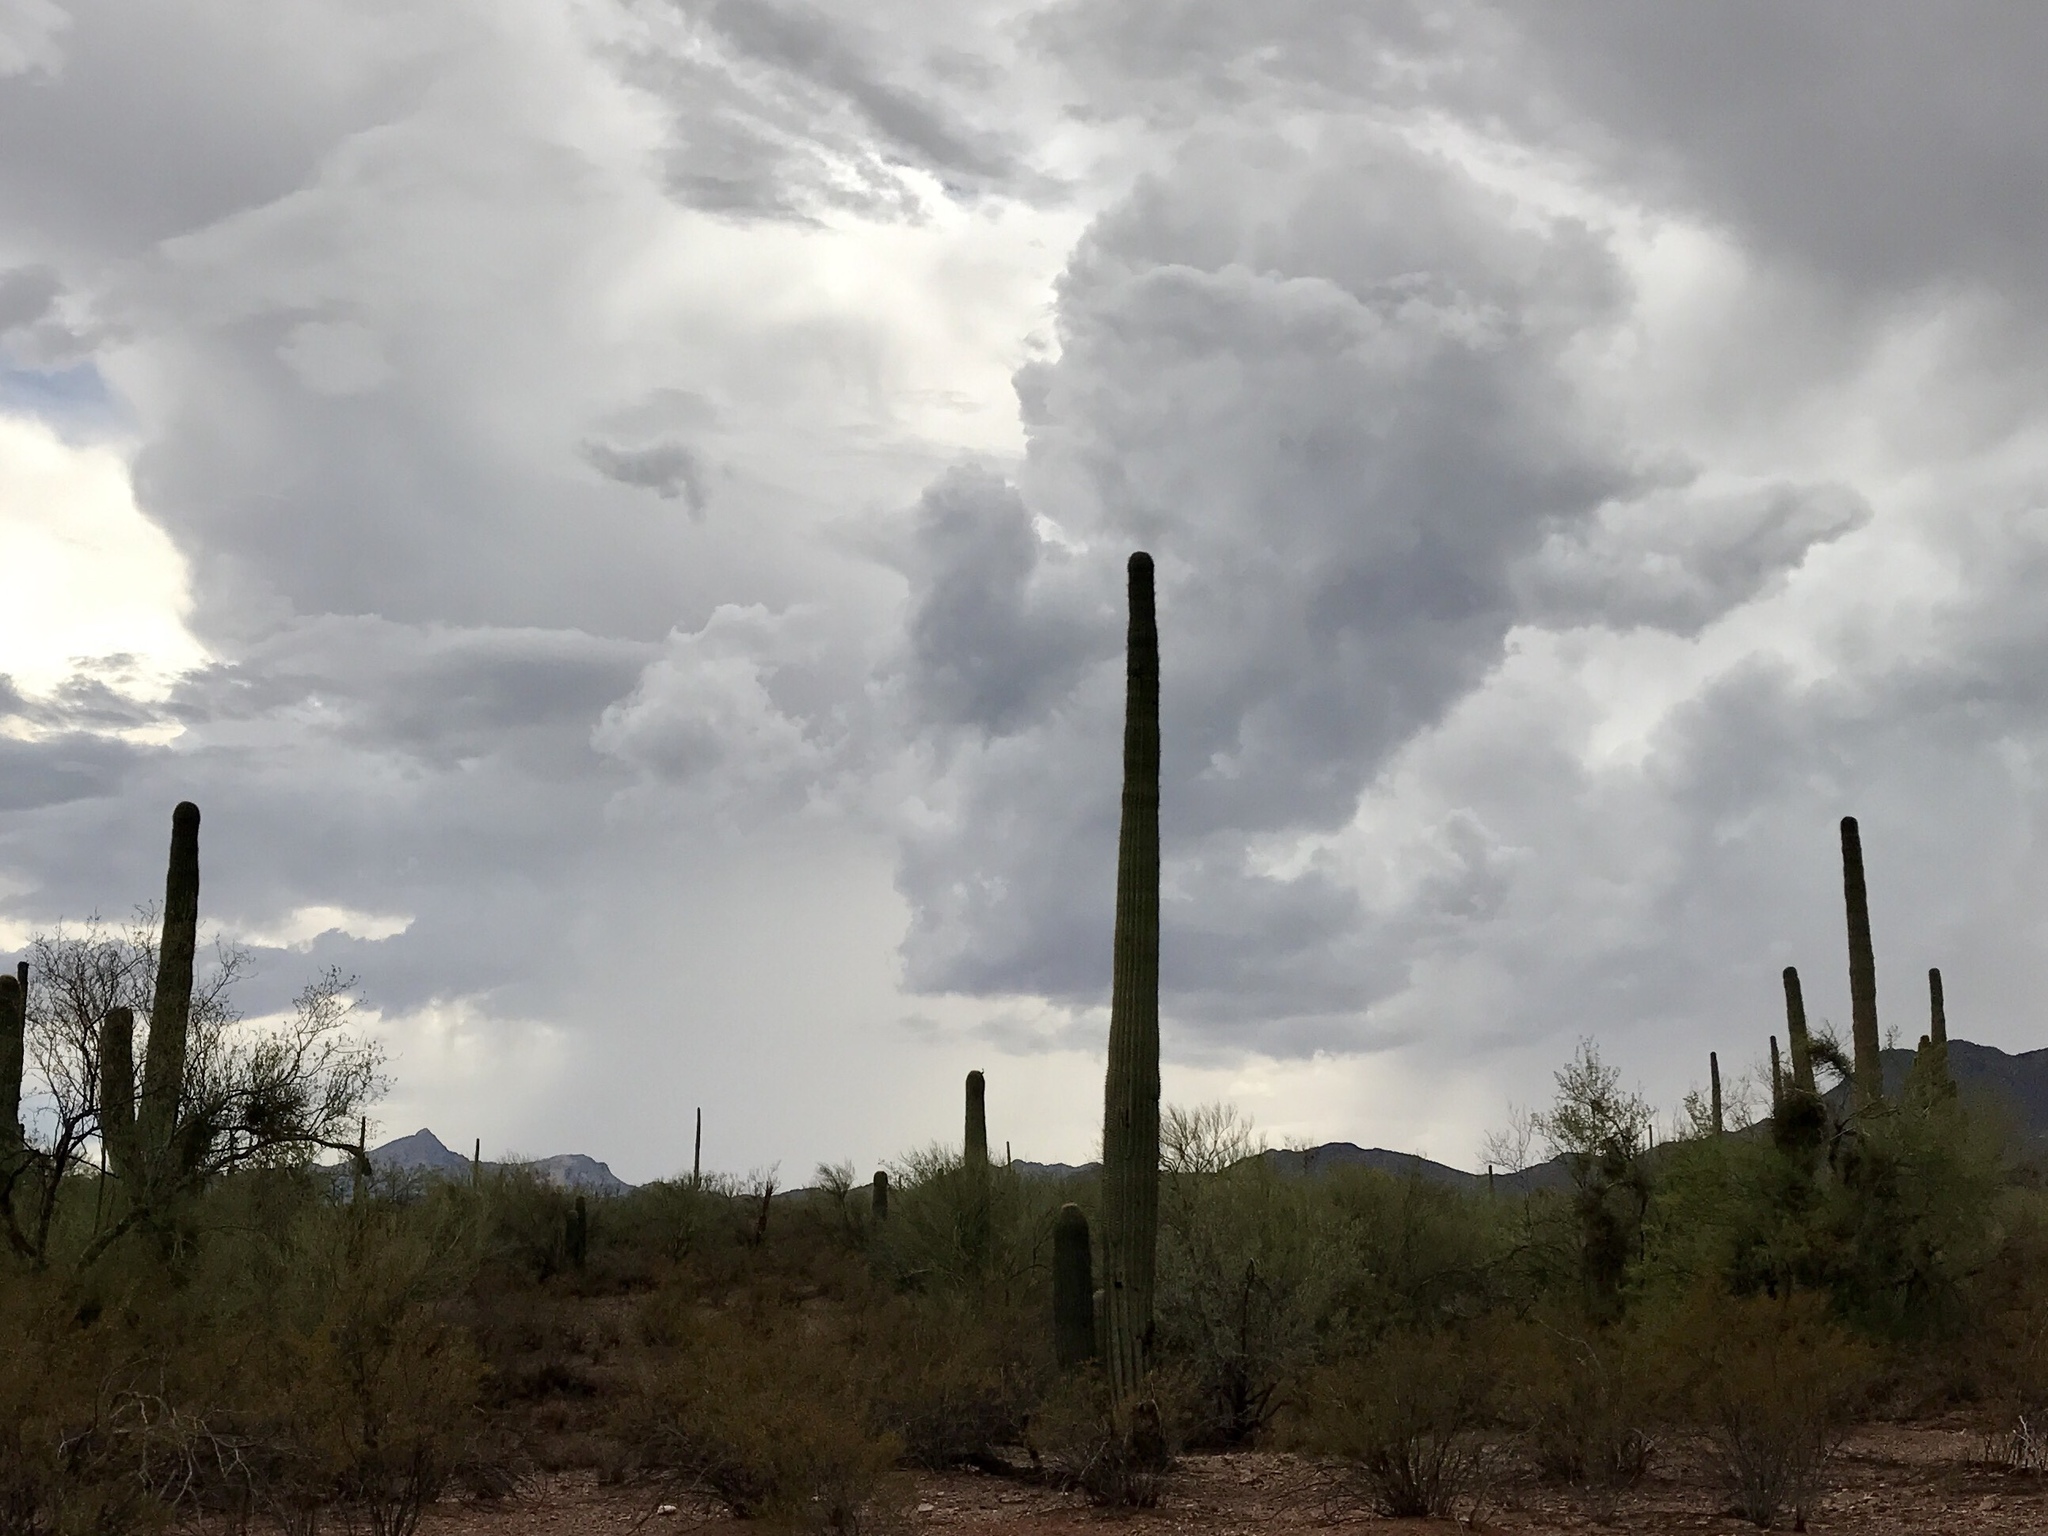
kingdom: Plantae
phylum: Tracheophyta
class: Magnoliopsida
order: Caryophyllales
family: Cactaceae
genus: Carnegiea
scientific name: Carnegiea gigantea
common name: Saguaro
